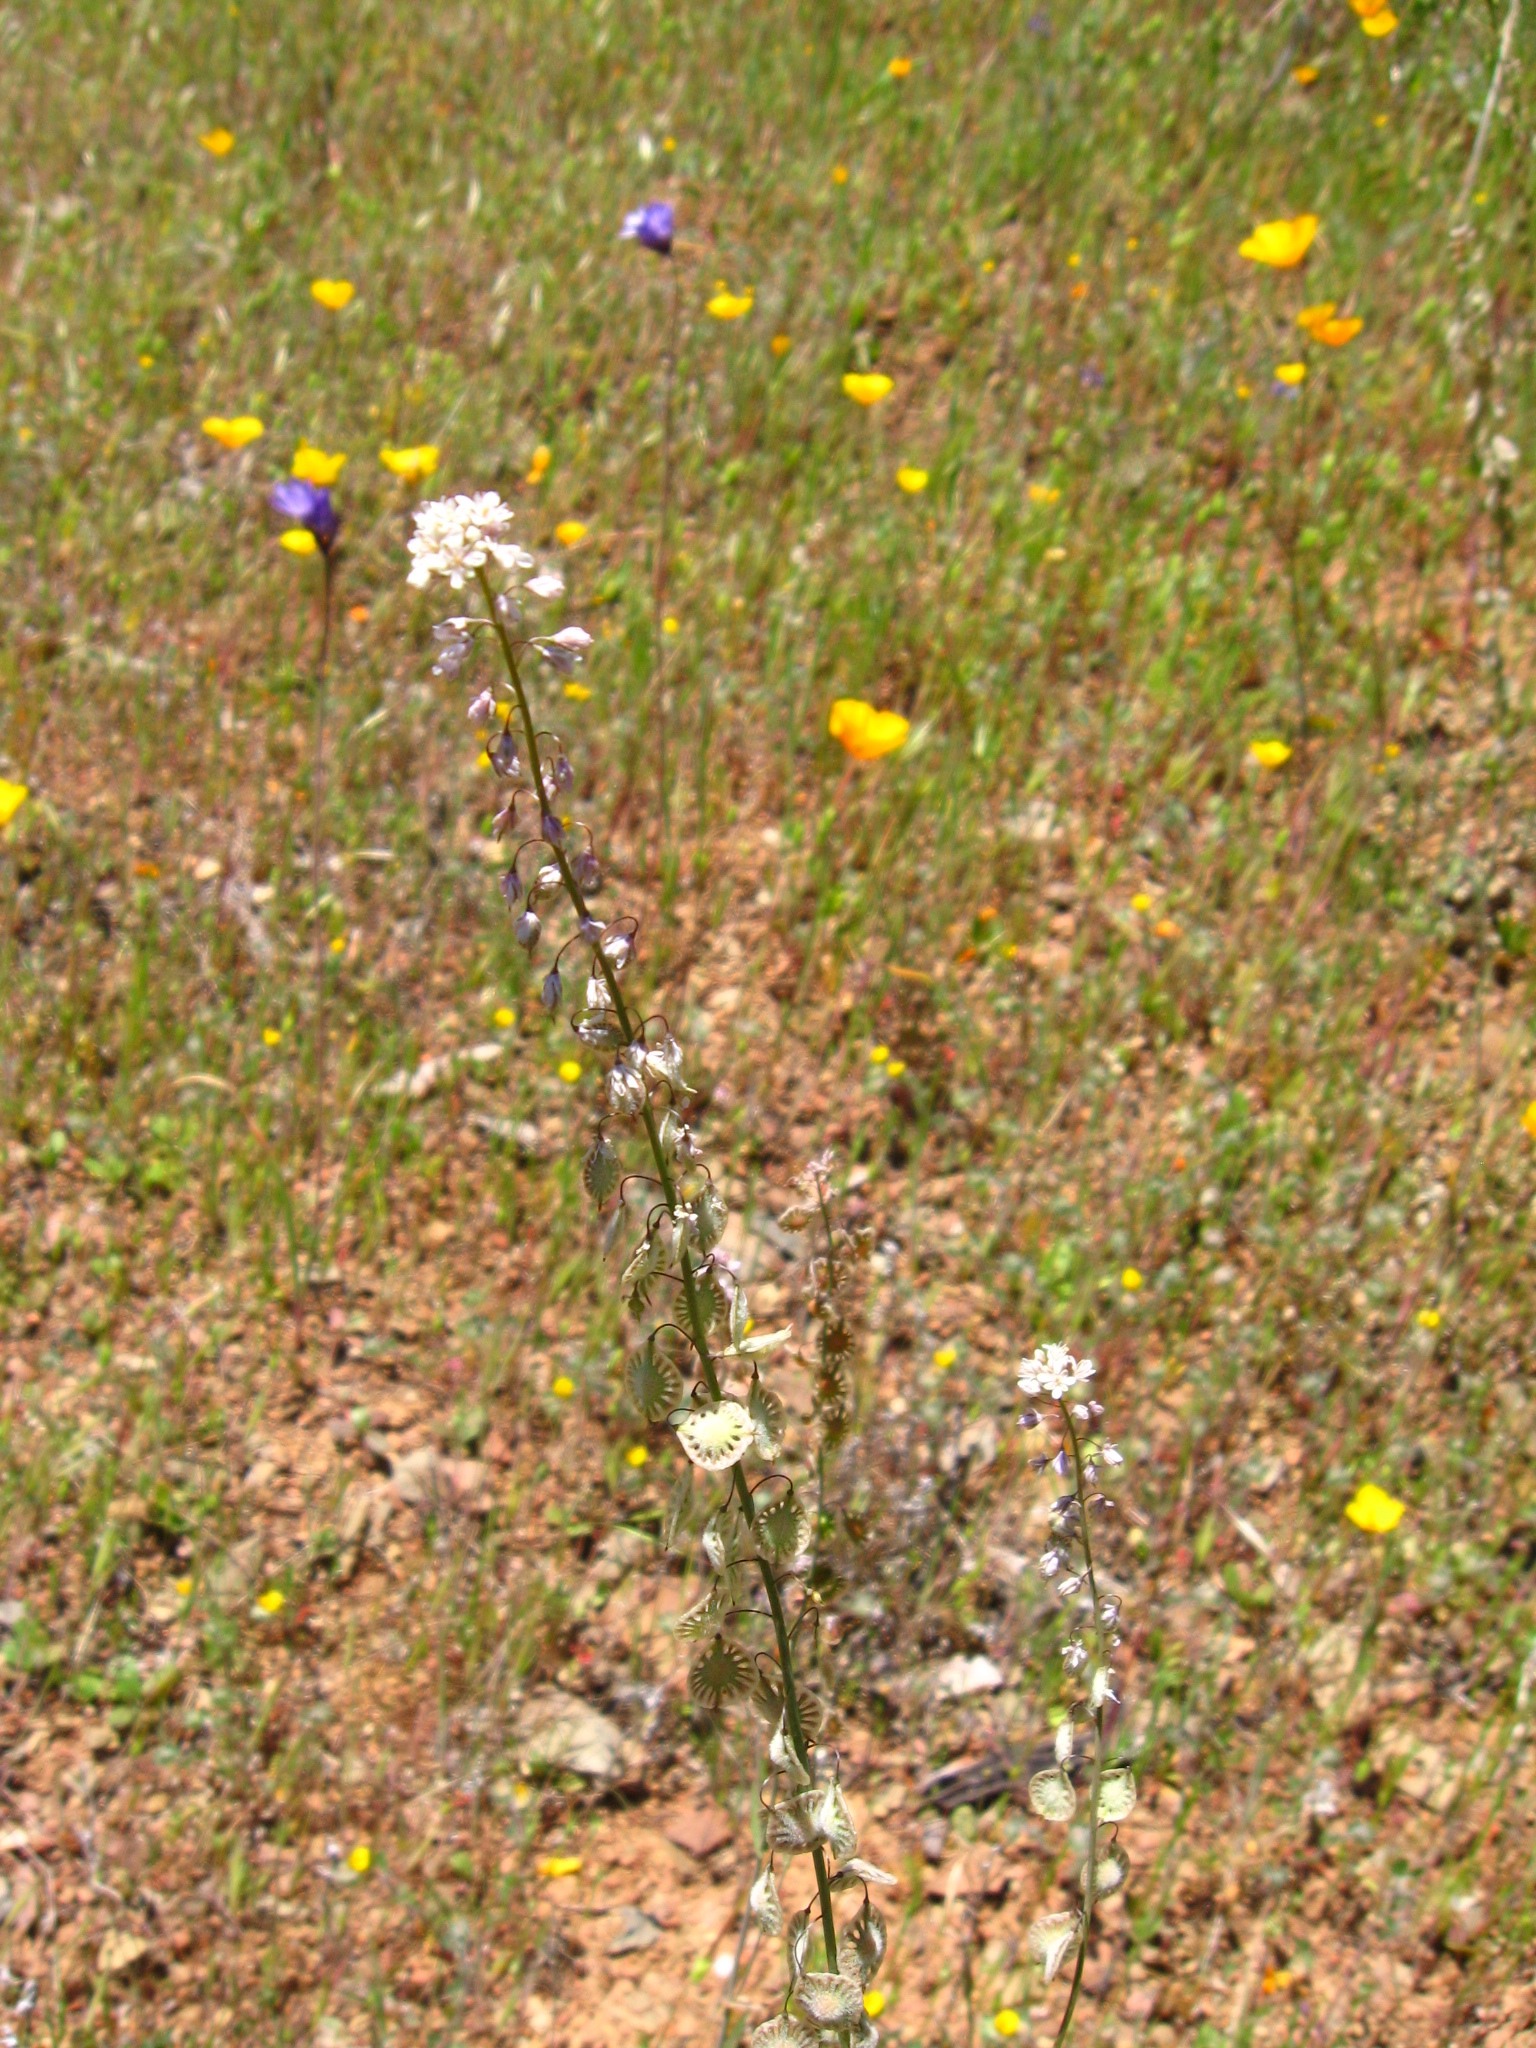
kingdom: Plantae
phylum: Tracheophyta
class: Magnoliopsida
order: Brassicales
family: Brassicaceae
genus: Thysanocarpus
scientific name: Thysanocarpus curvipes
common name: Sand fringepod
